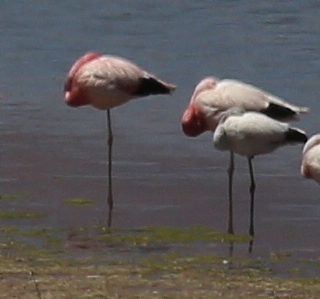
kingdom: Animalia
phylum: Chordata
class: Aves
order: Phoenicopteriformes
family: Phoenicopteridae
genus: Phoenicoparrus
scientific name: Phoenicoparrus andinus
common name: Andean flamingo
